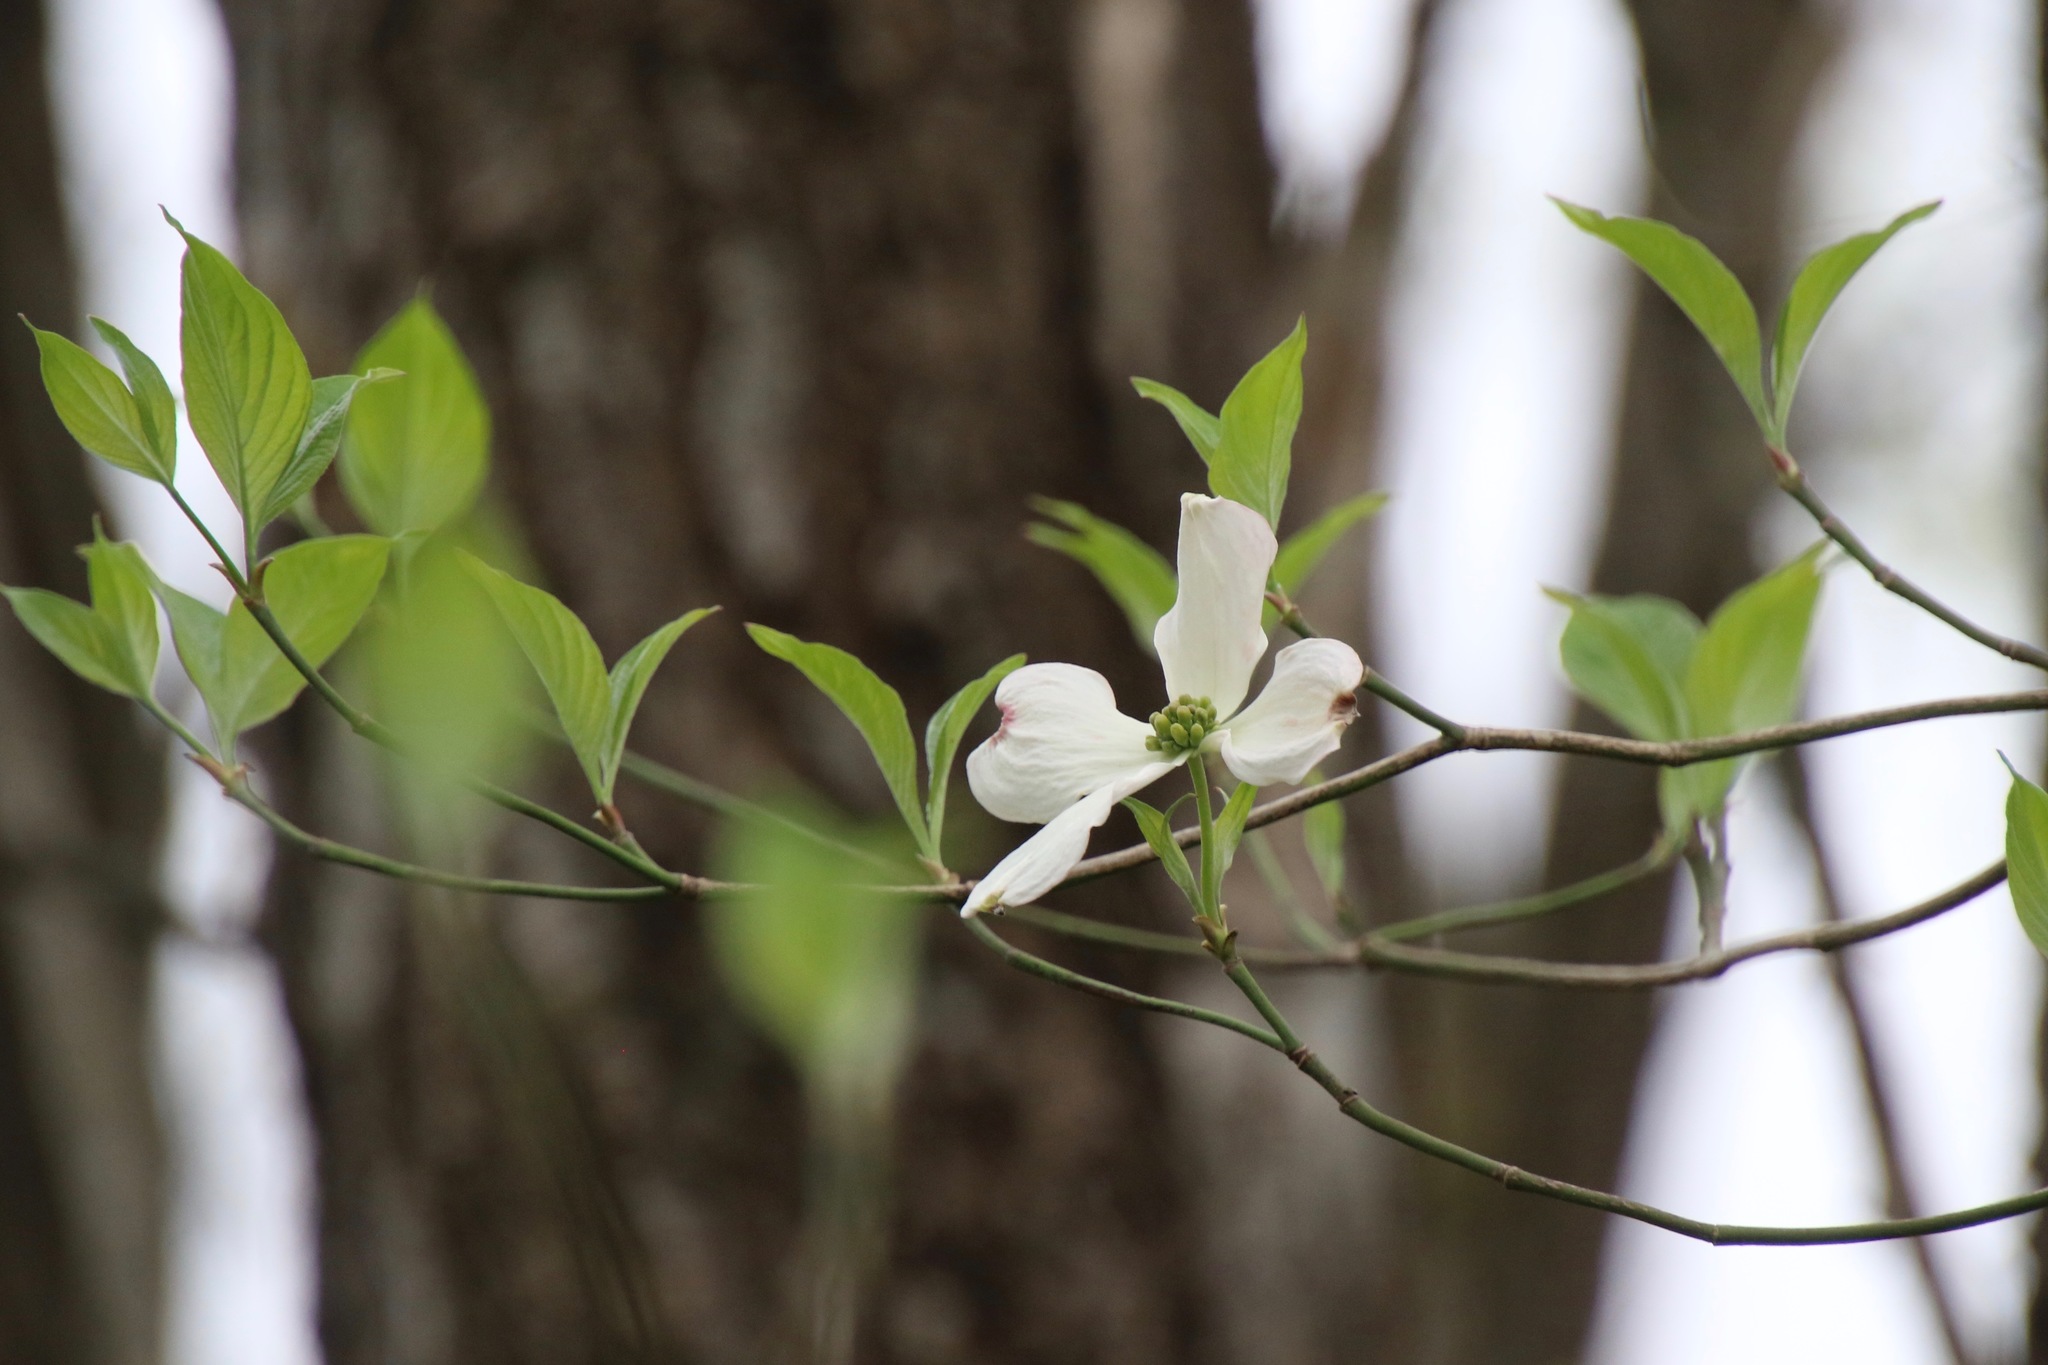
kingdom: Plantae
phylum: Tracheophyta
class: Magnoliopsida
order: Cornales
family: Cornaceae
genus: Cornus
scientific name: Cornus florida
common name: Flowering dogwood
